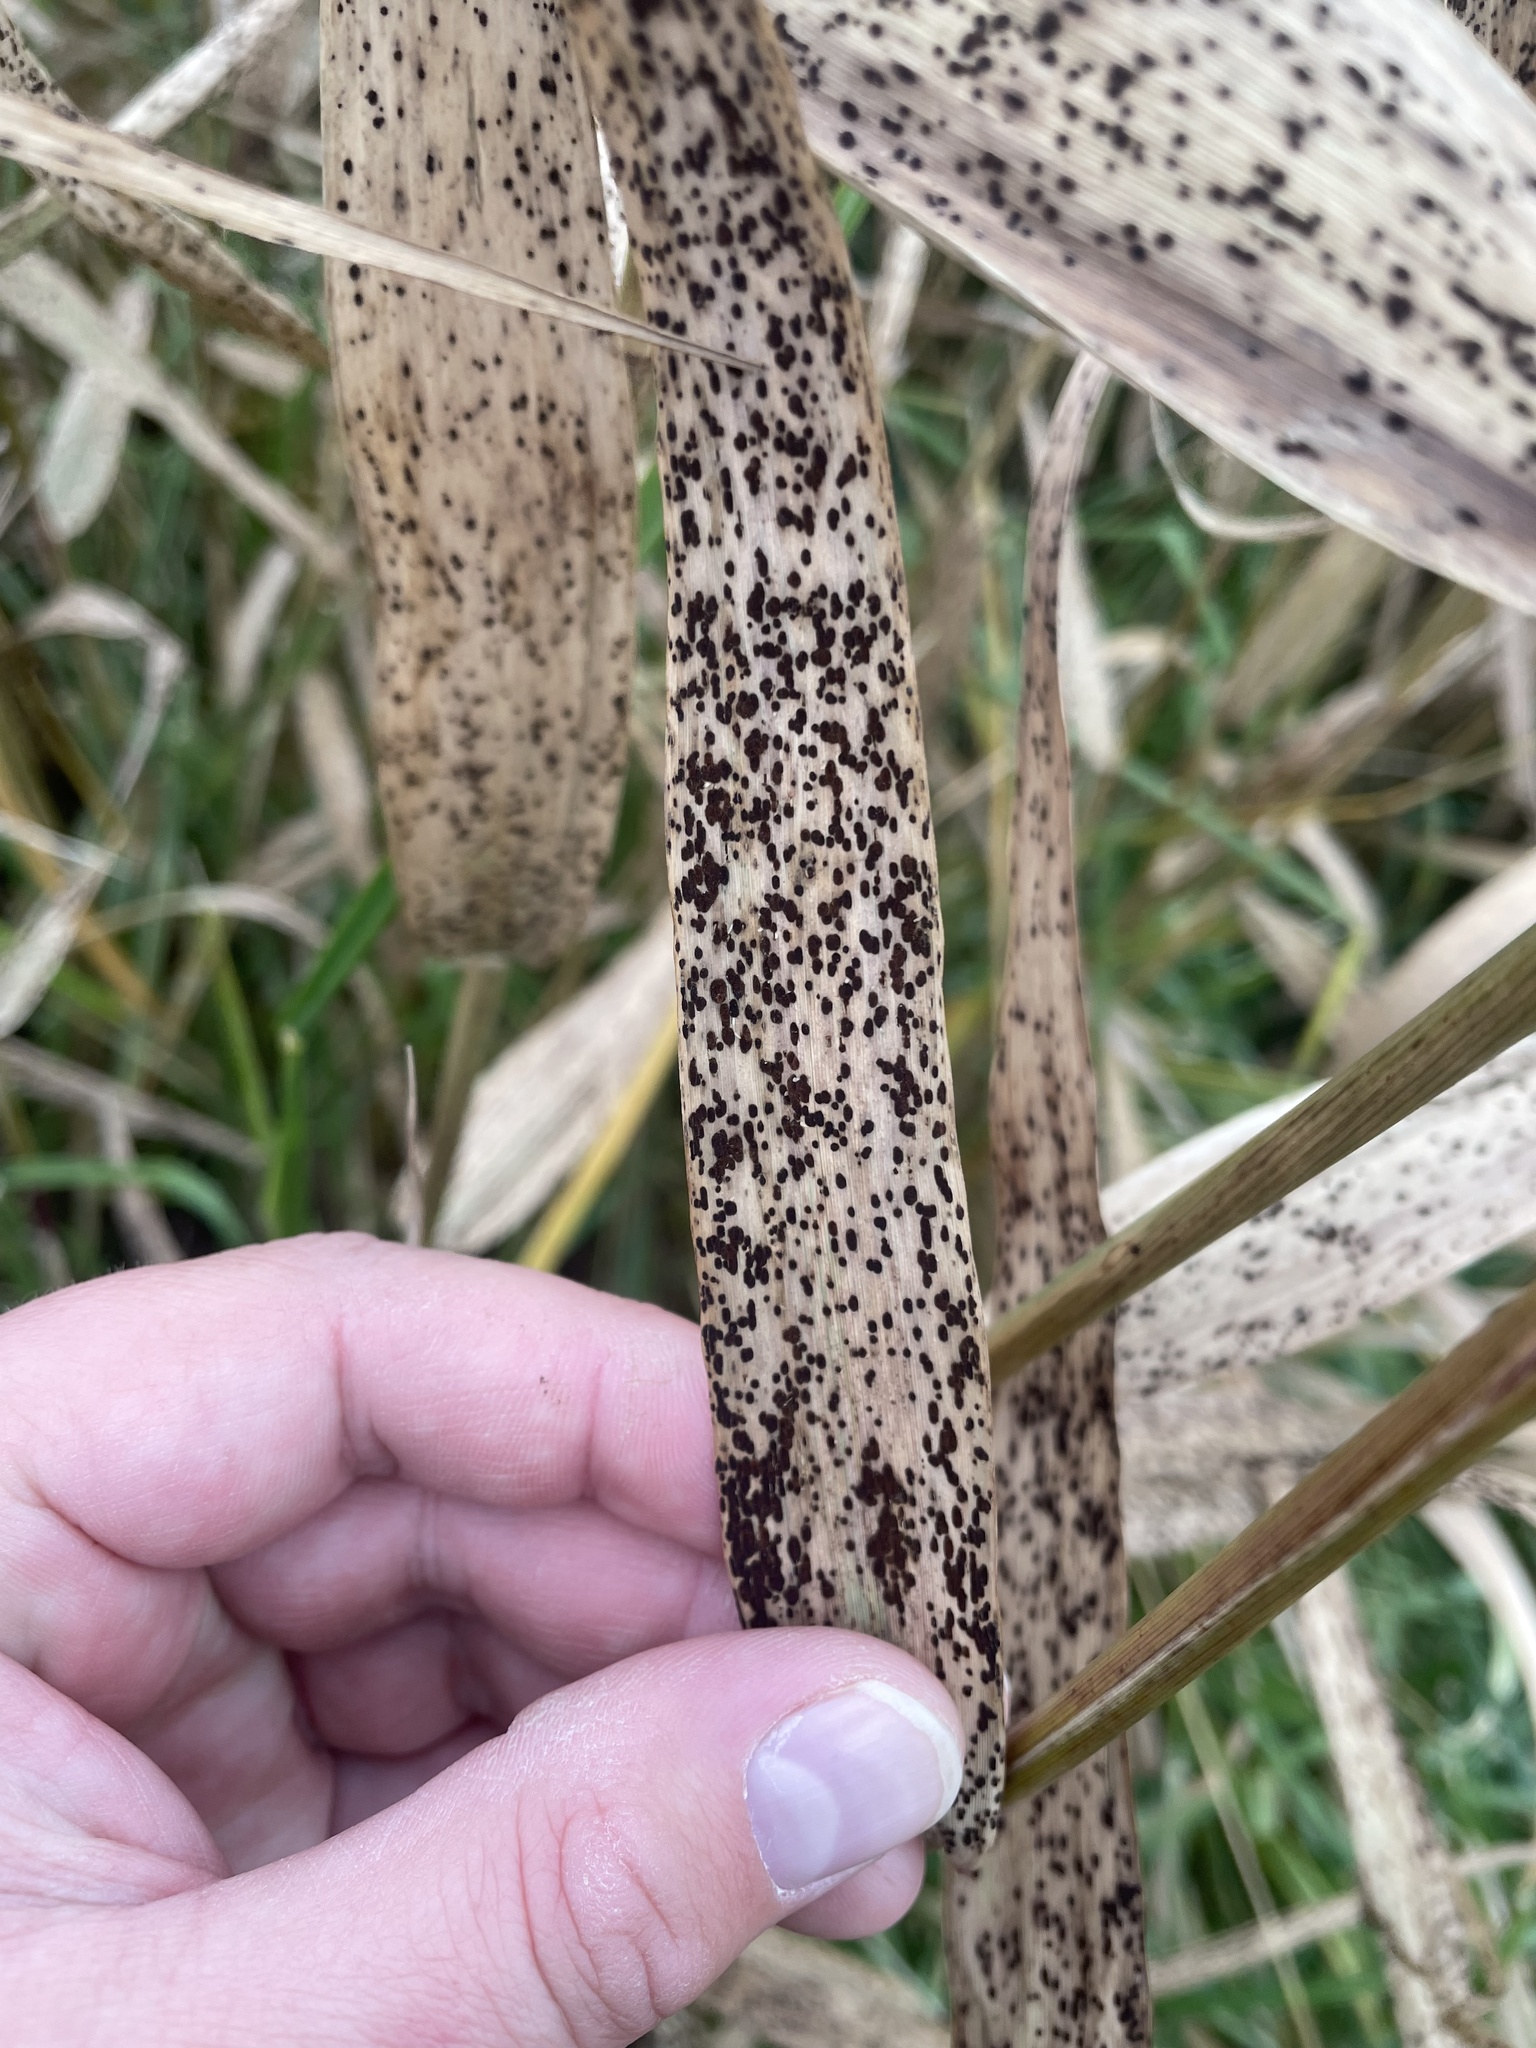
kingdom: Plantae
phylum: Tracheophyta
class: Liliopsida
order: Poales
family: Poaceae
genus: Phragmites
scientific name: Phragmites australis
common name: Common reed
